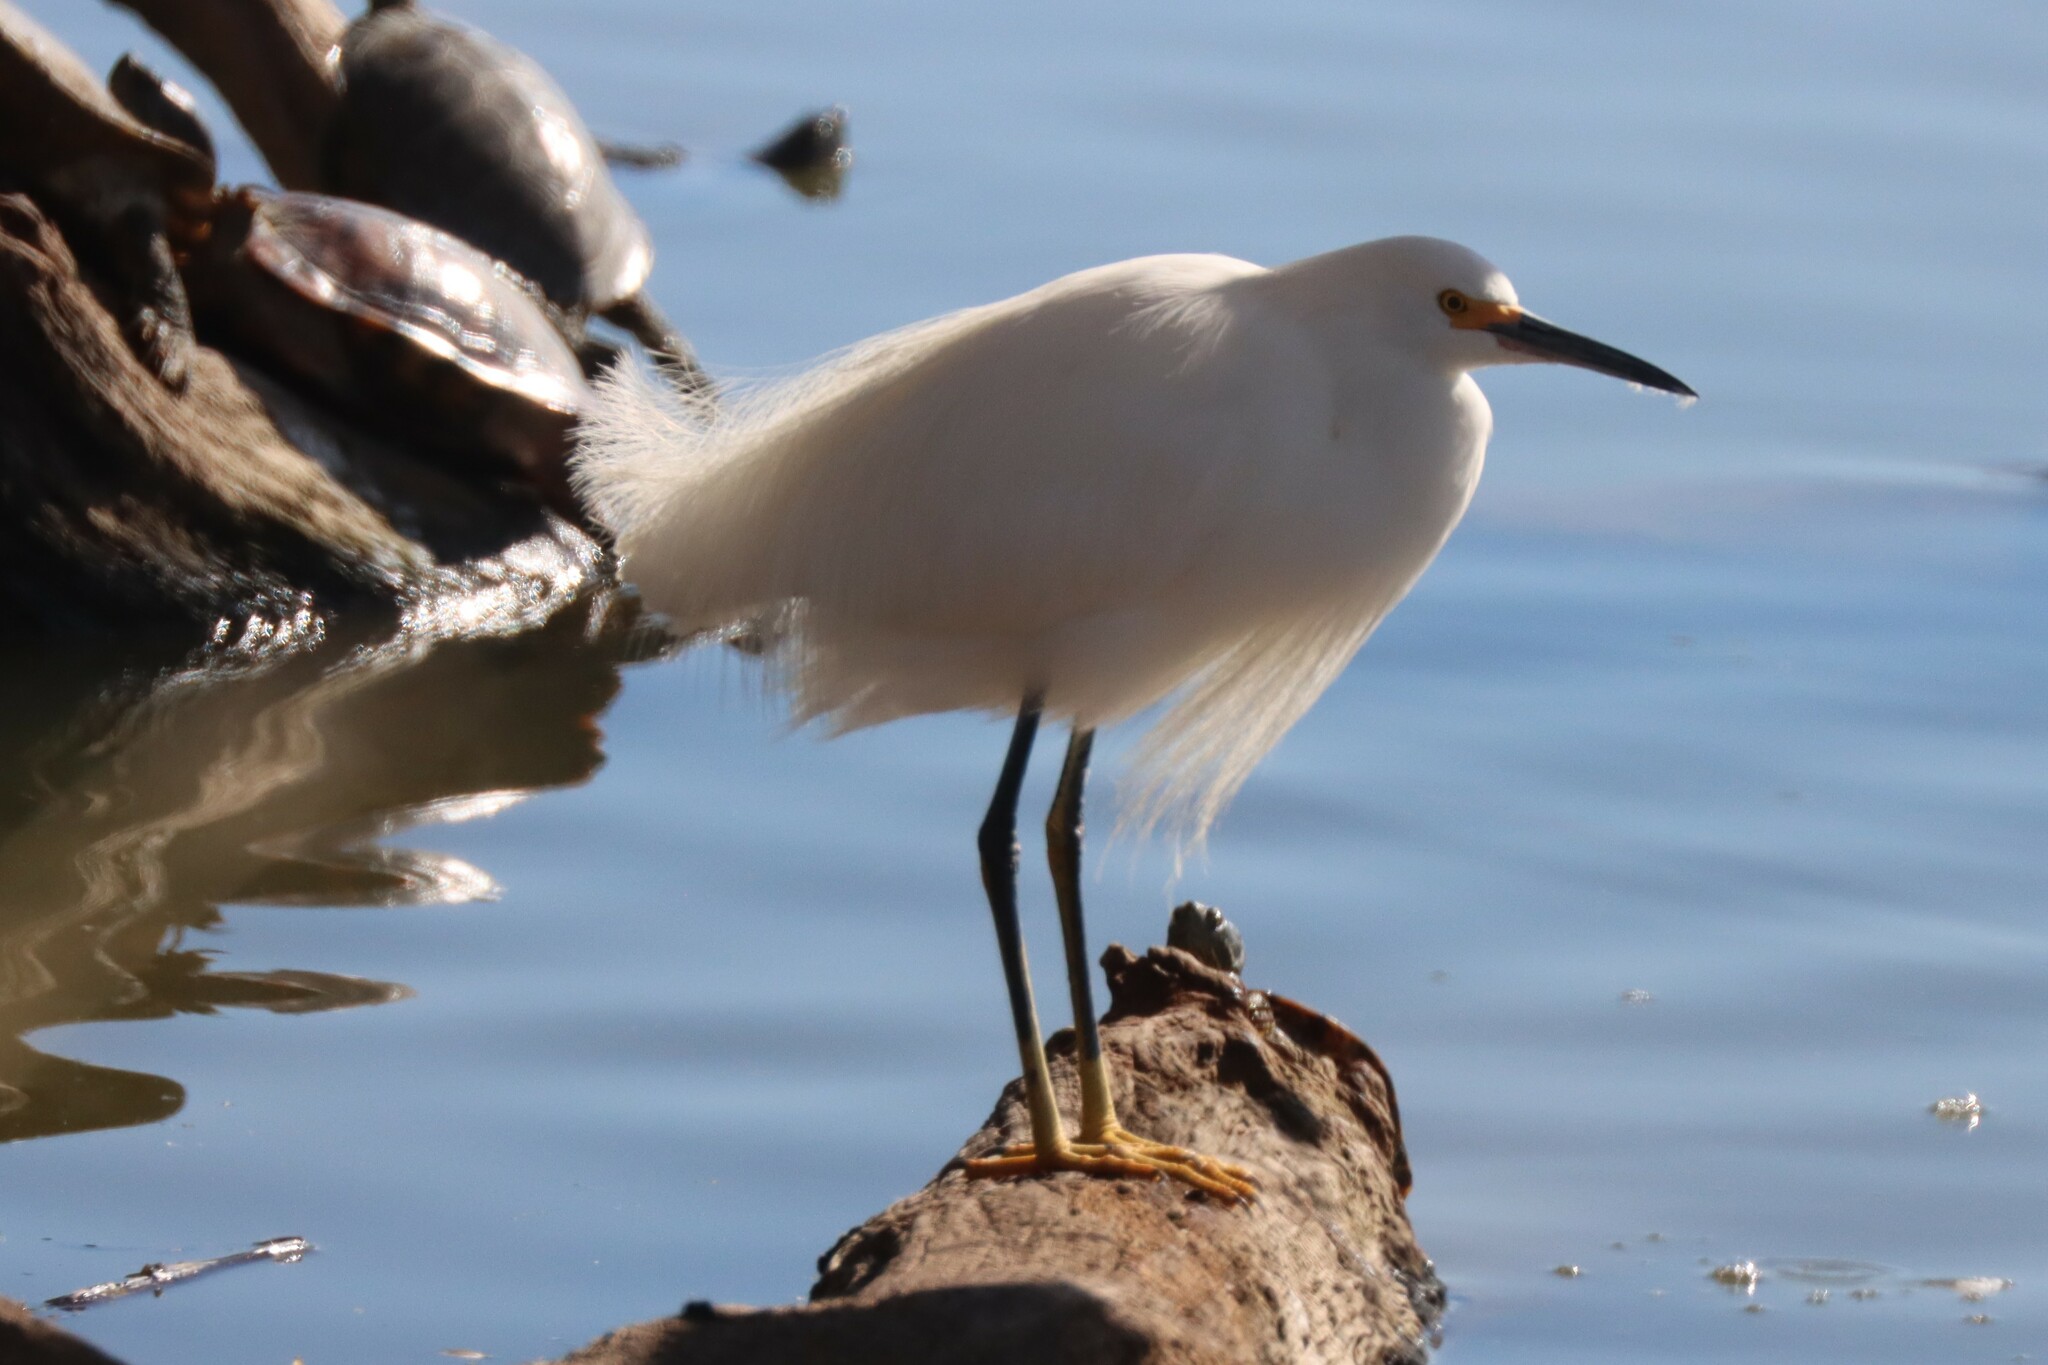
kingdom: Animalia
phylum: Chordata
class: Aves
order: Pelecaniformes
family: Ardeidae
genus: Egretta
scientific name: Egretta thula
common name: Snowy egret
